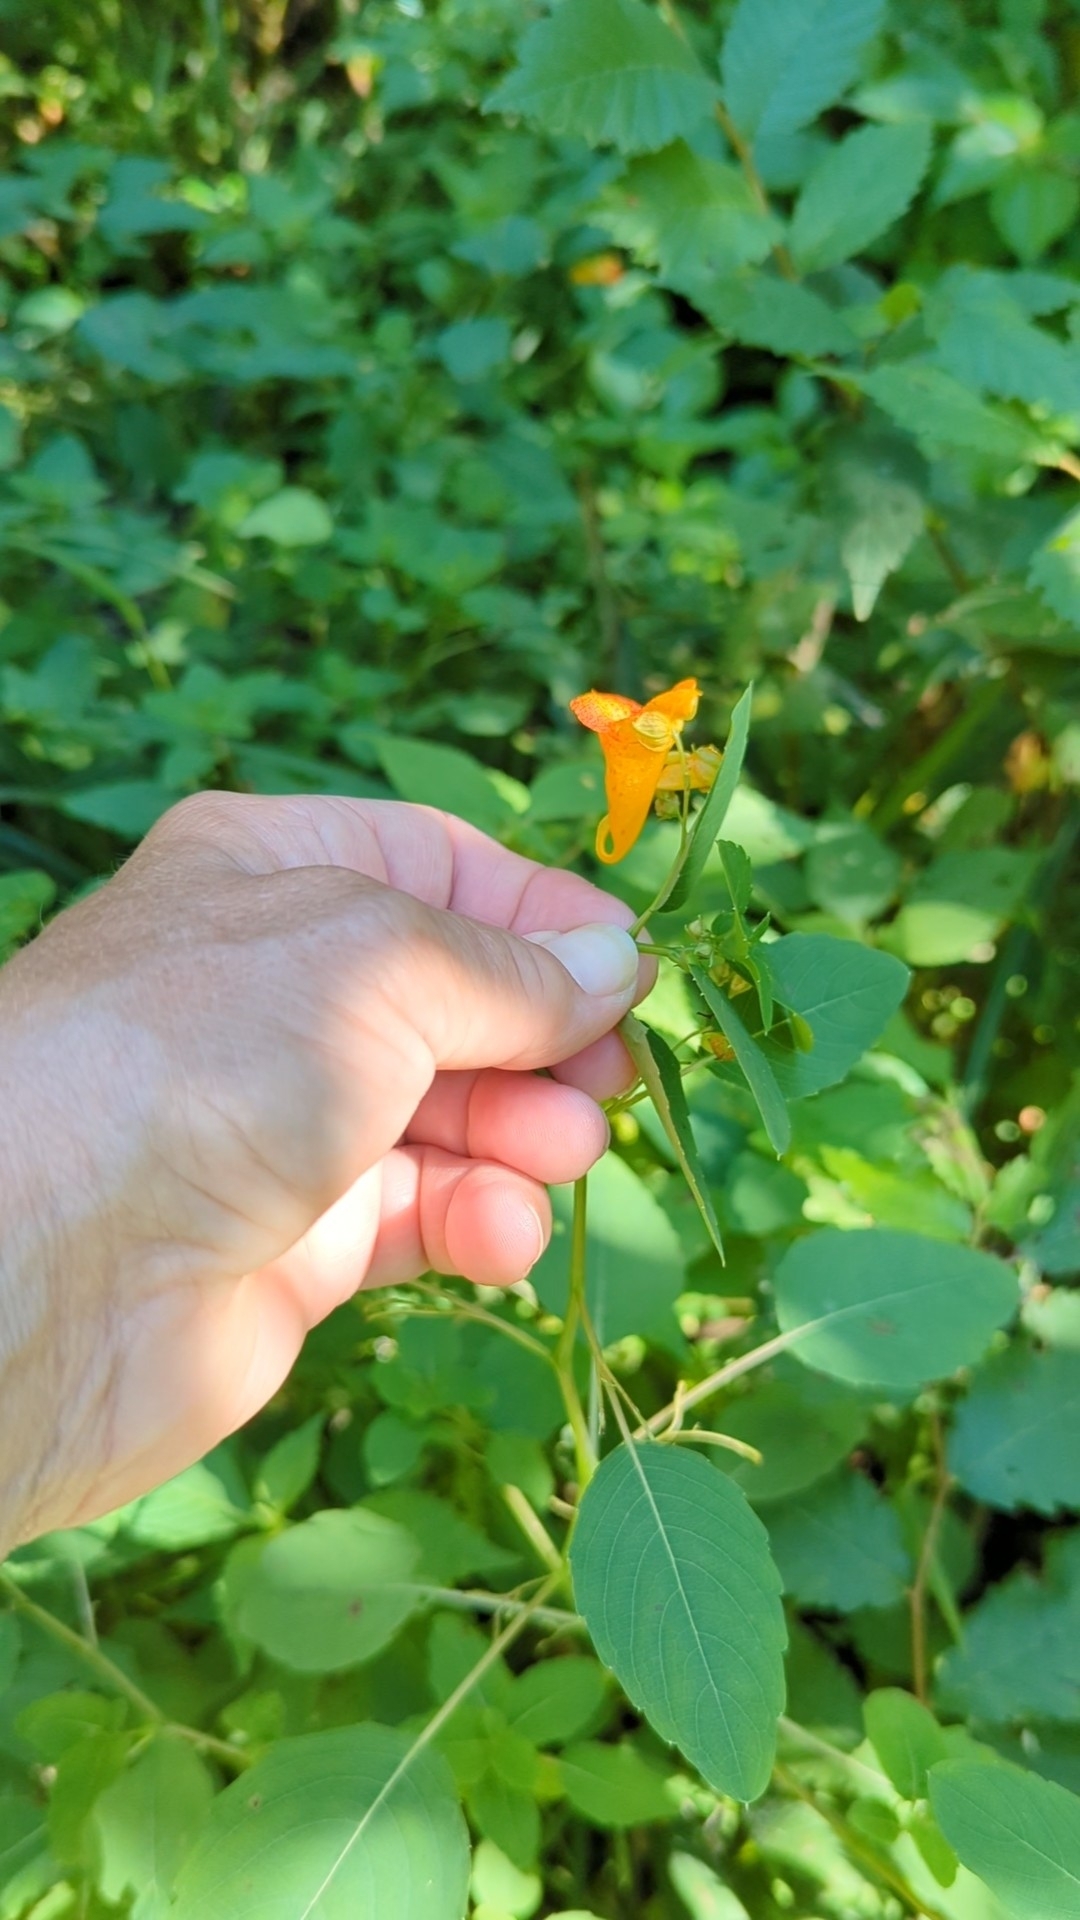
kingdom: Plantae
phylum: Tracheophyta
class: Magnoliopsida
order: Ericales
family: Balsaminaceae
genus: Impatiens
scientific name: Impatiens capensis
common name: Orange balsam
